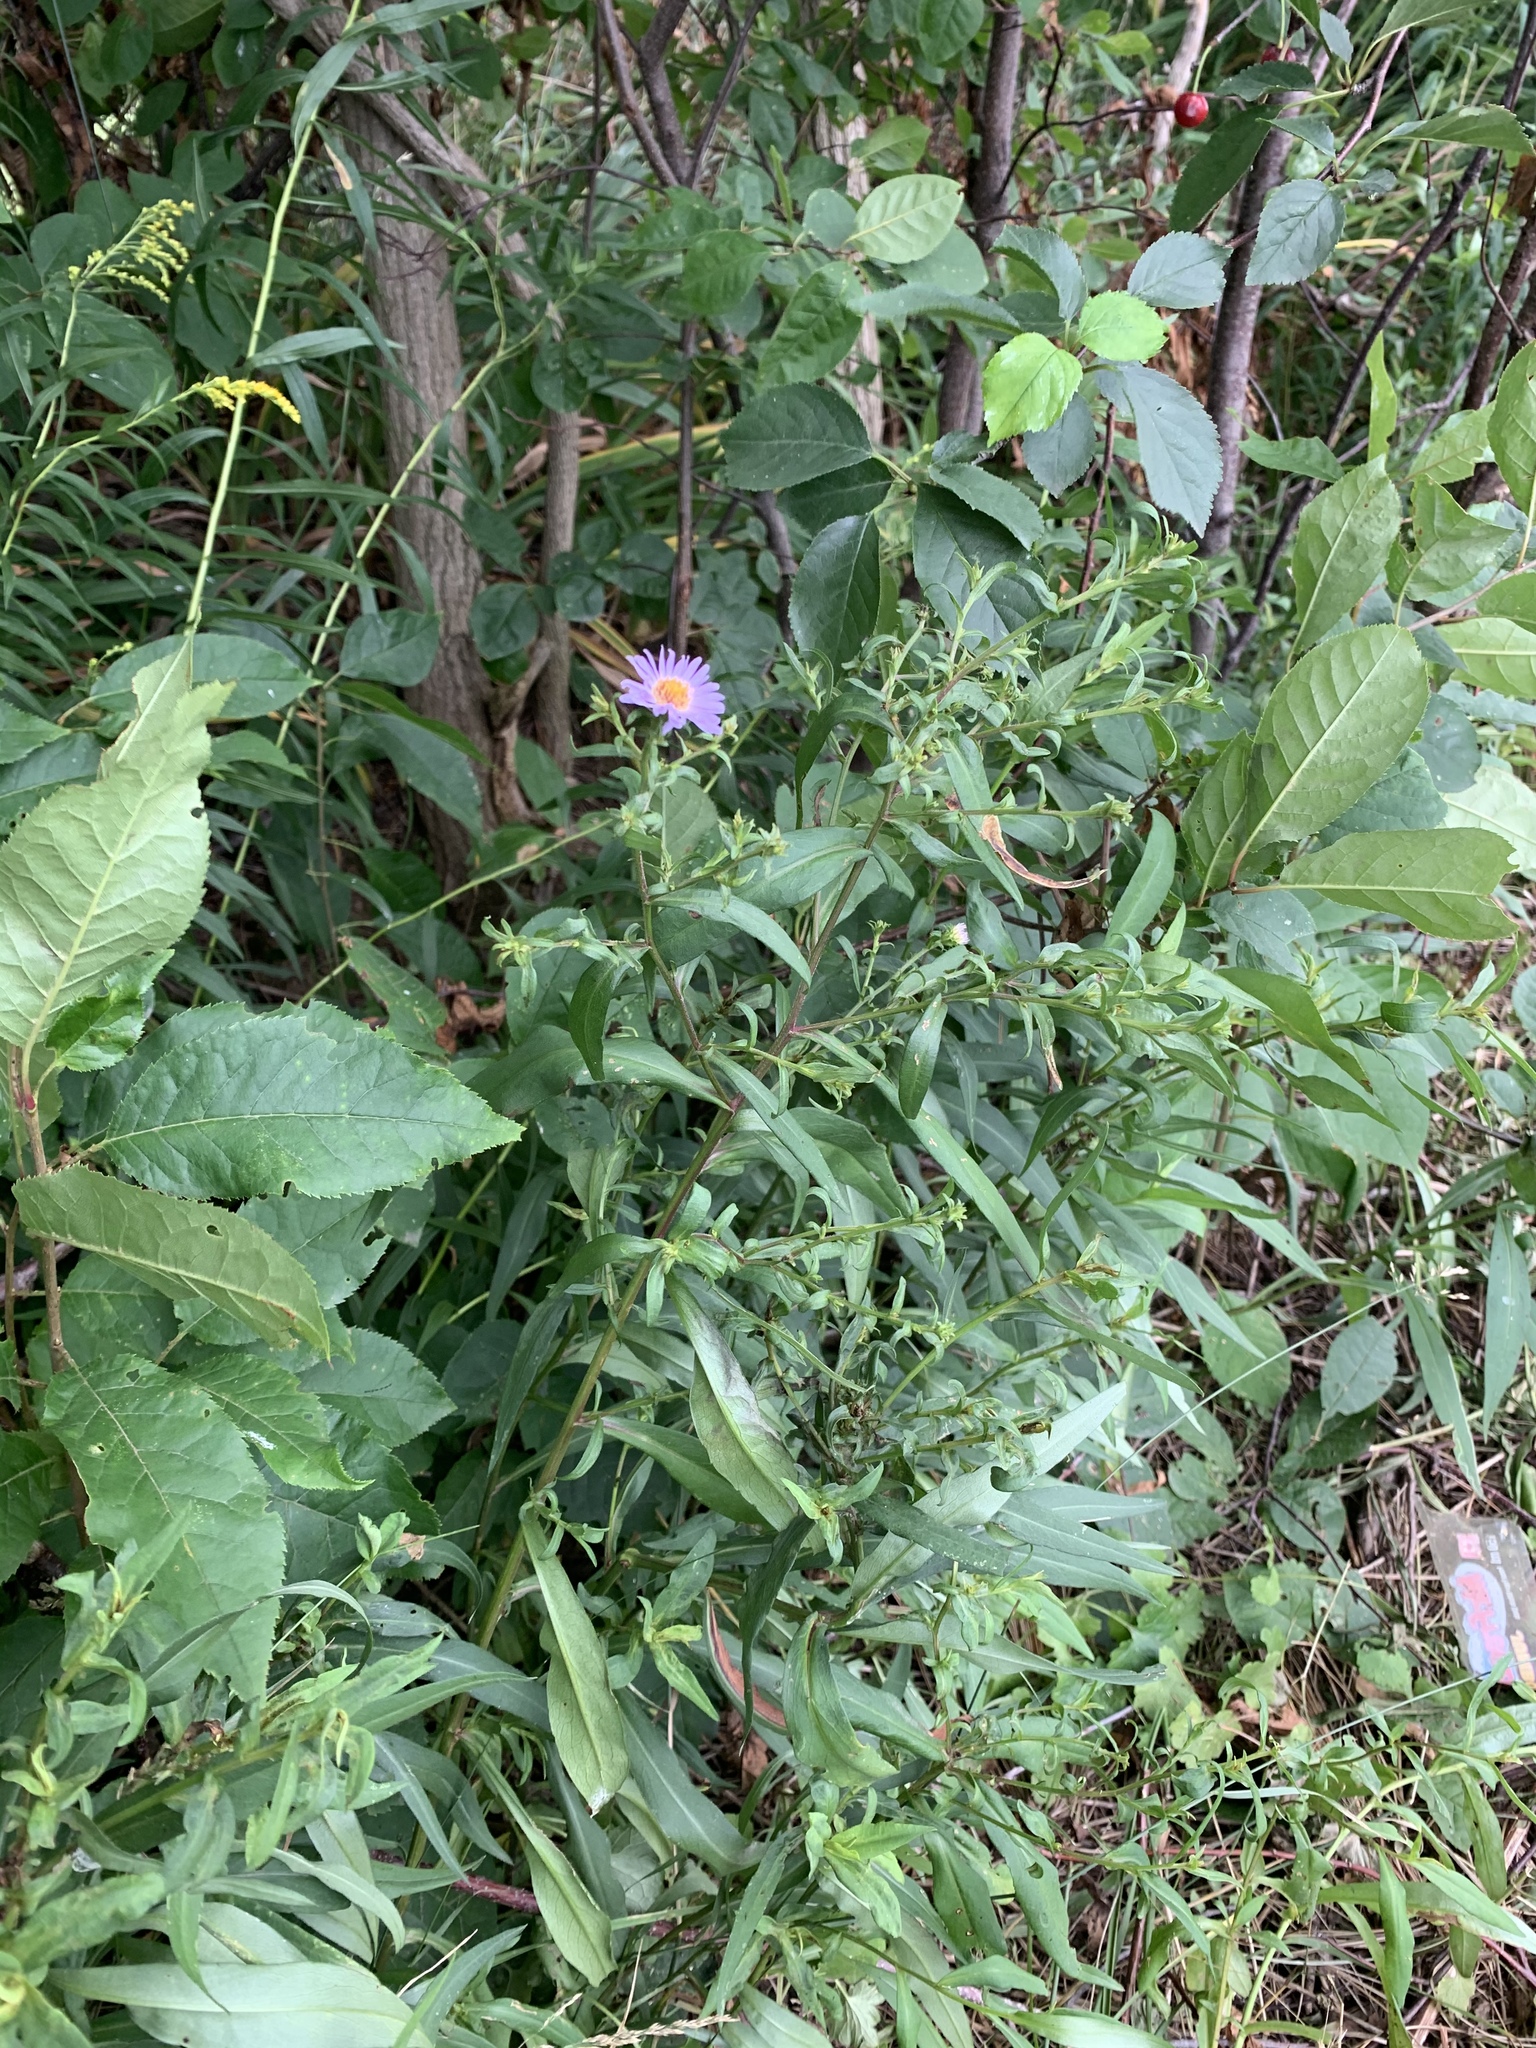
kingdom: Plantae
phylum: Tracheophyta
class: Magnoliopsida
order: Asterales
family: Asteraceae
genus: Symphyotrichum
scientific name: Symphyotrichum novi-belgii
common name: Michaelmas daisy
